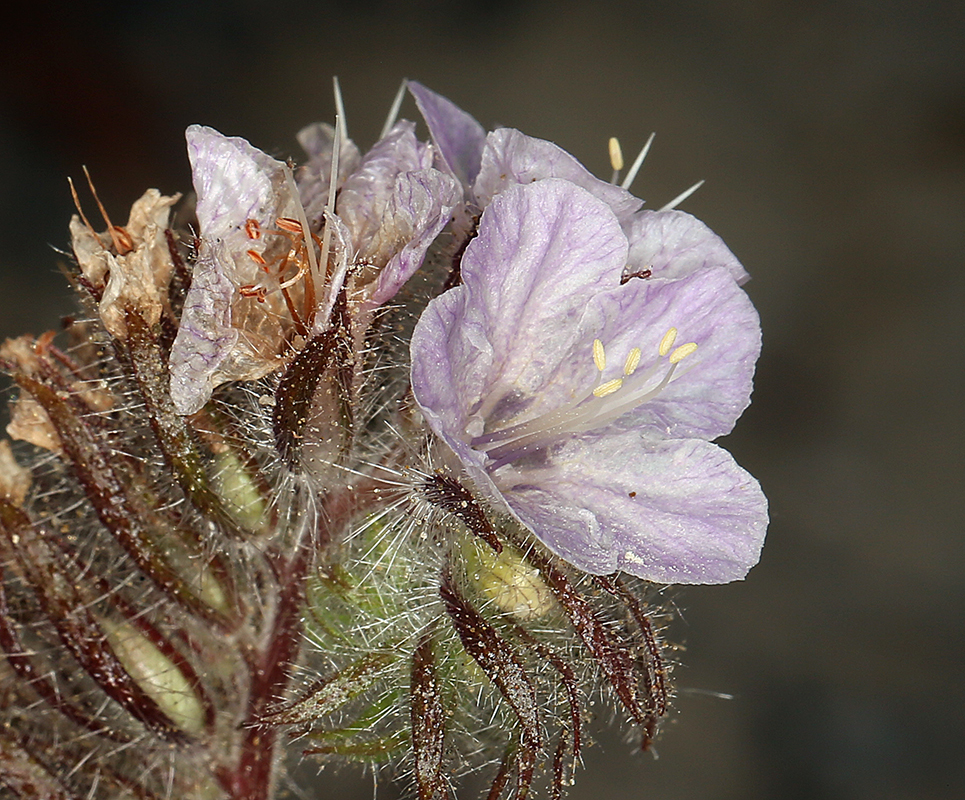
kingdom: Plantae
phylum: Tracheophyta
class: Magnoliopsida
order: Boraginales
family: Hydrophyllaceae
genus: Phacelia
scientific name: Phacelia vallis-mortae
